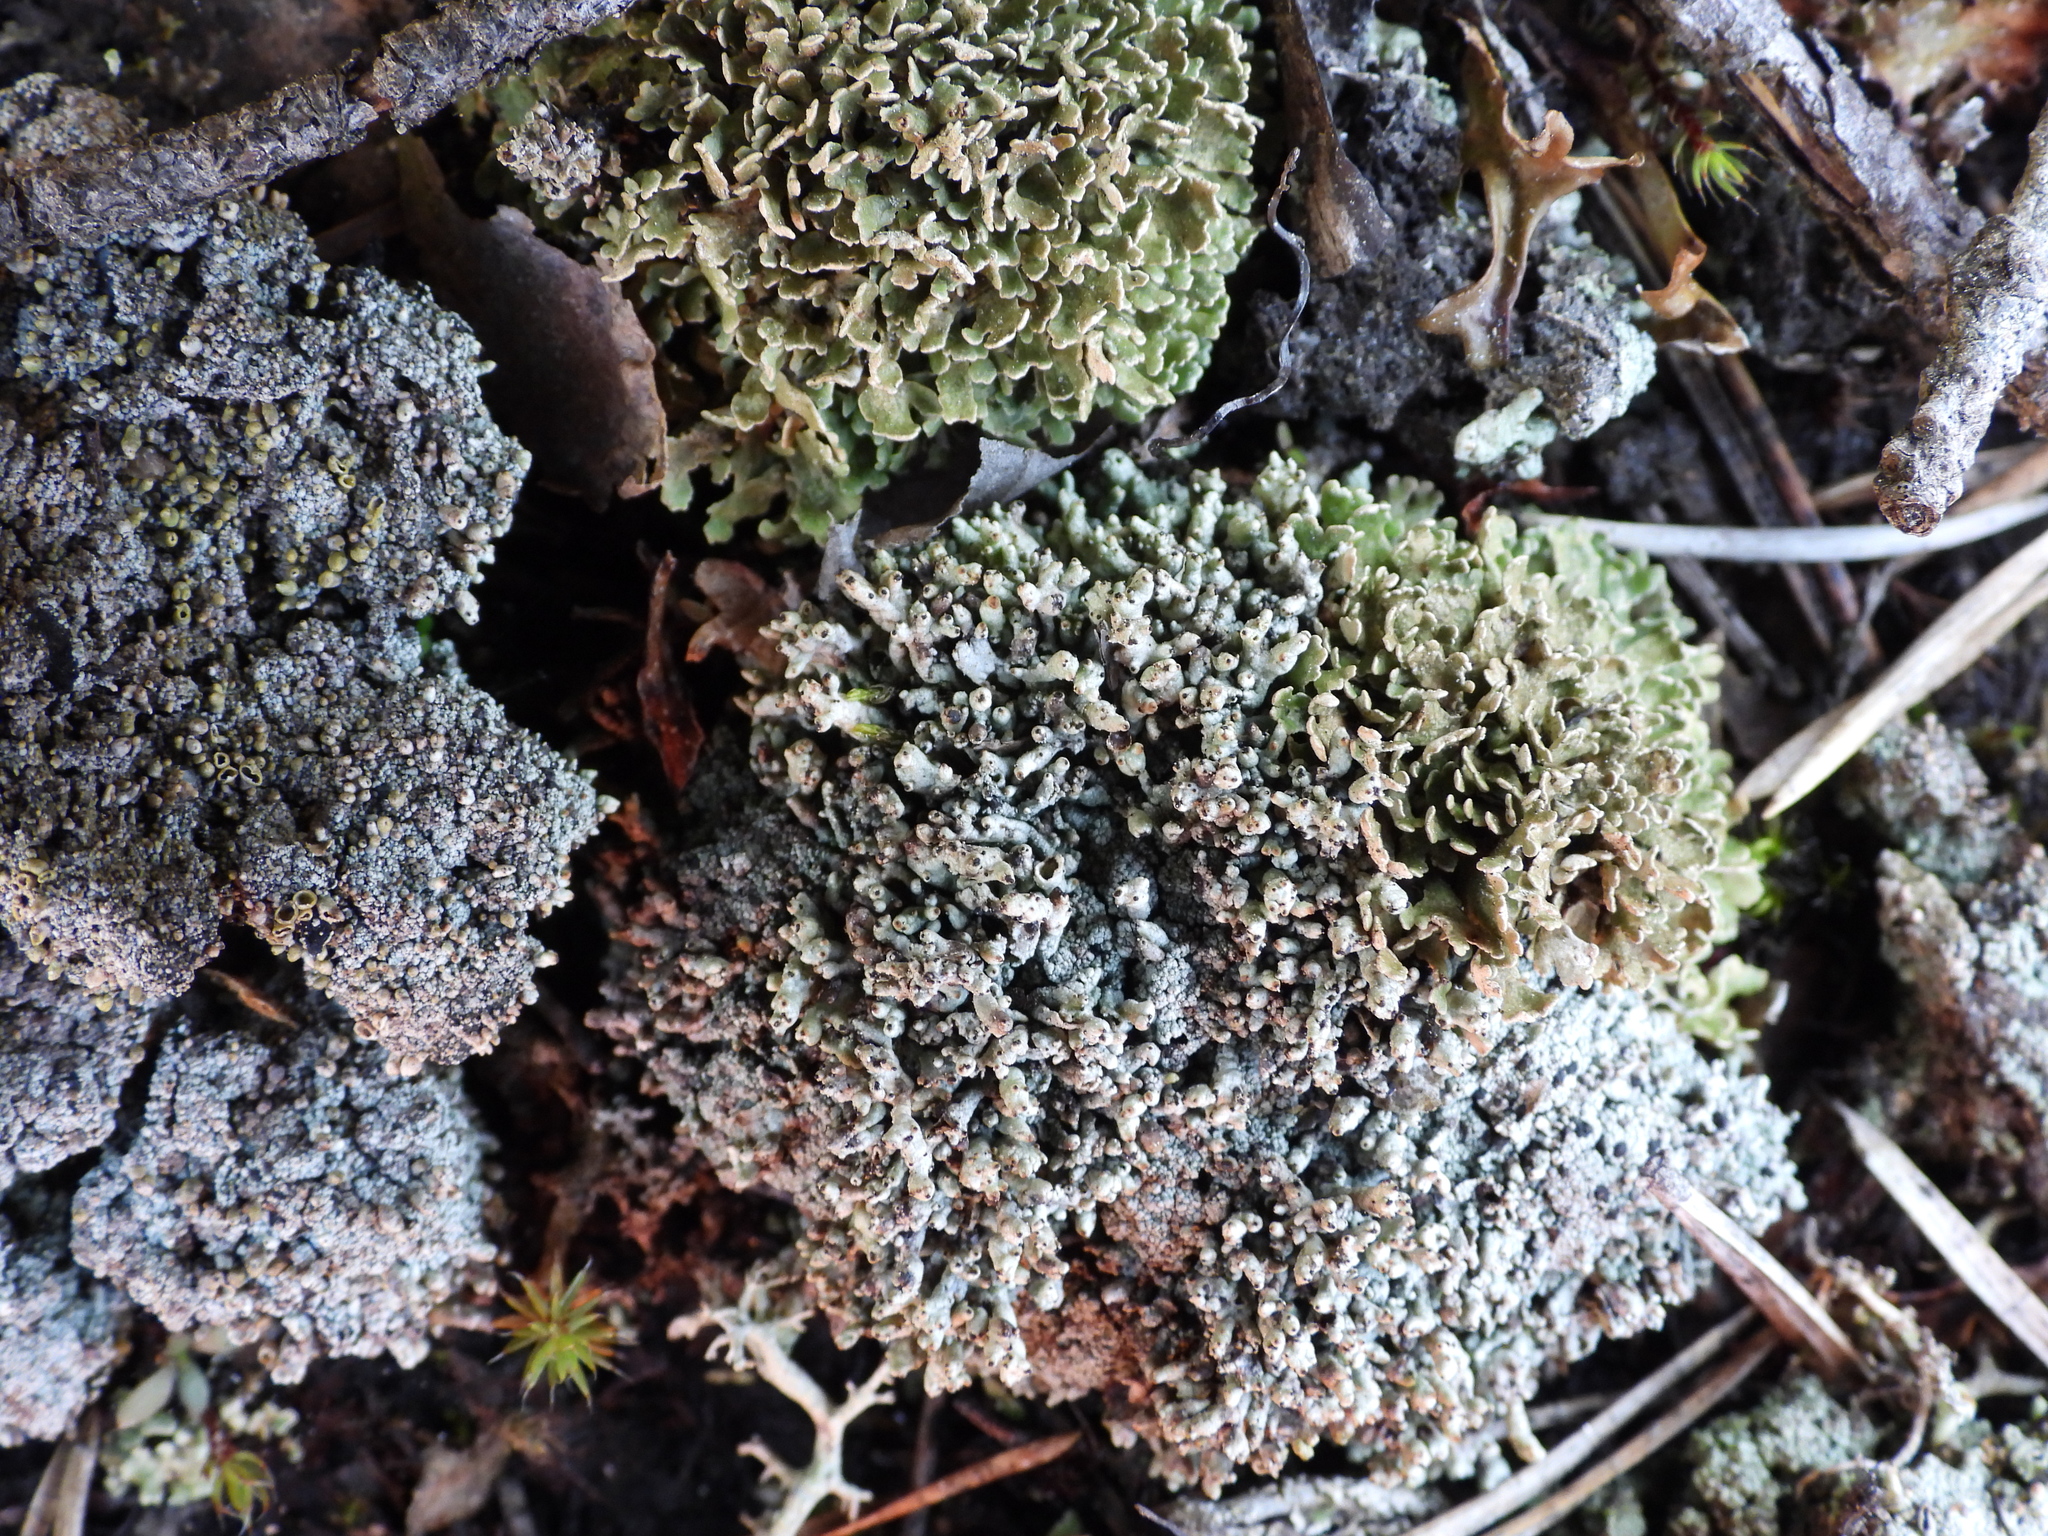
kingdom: Fungi
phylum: Ascomycota
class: Lecanoromycetes
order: Lecanorales
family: Cladoniaceae
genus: Cladonia
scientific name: Cladonia strepsilis
